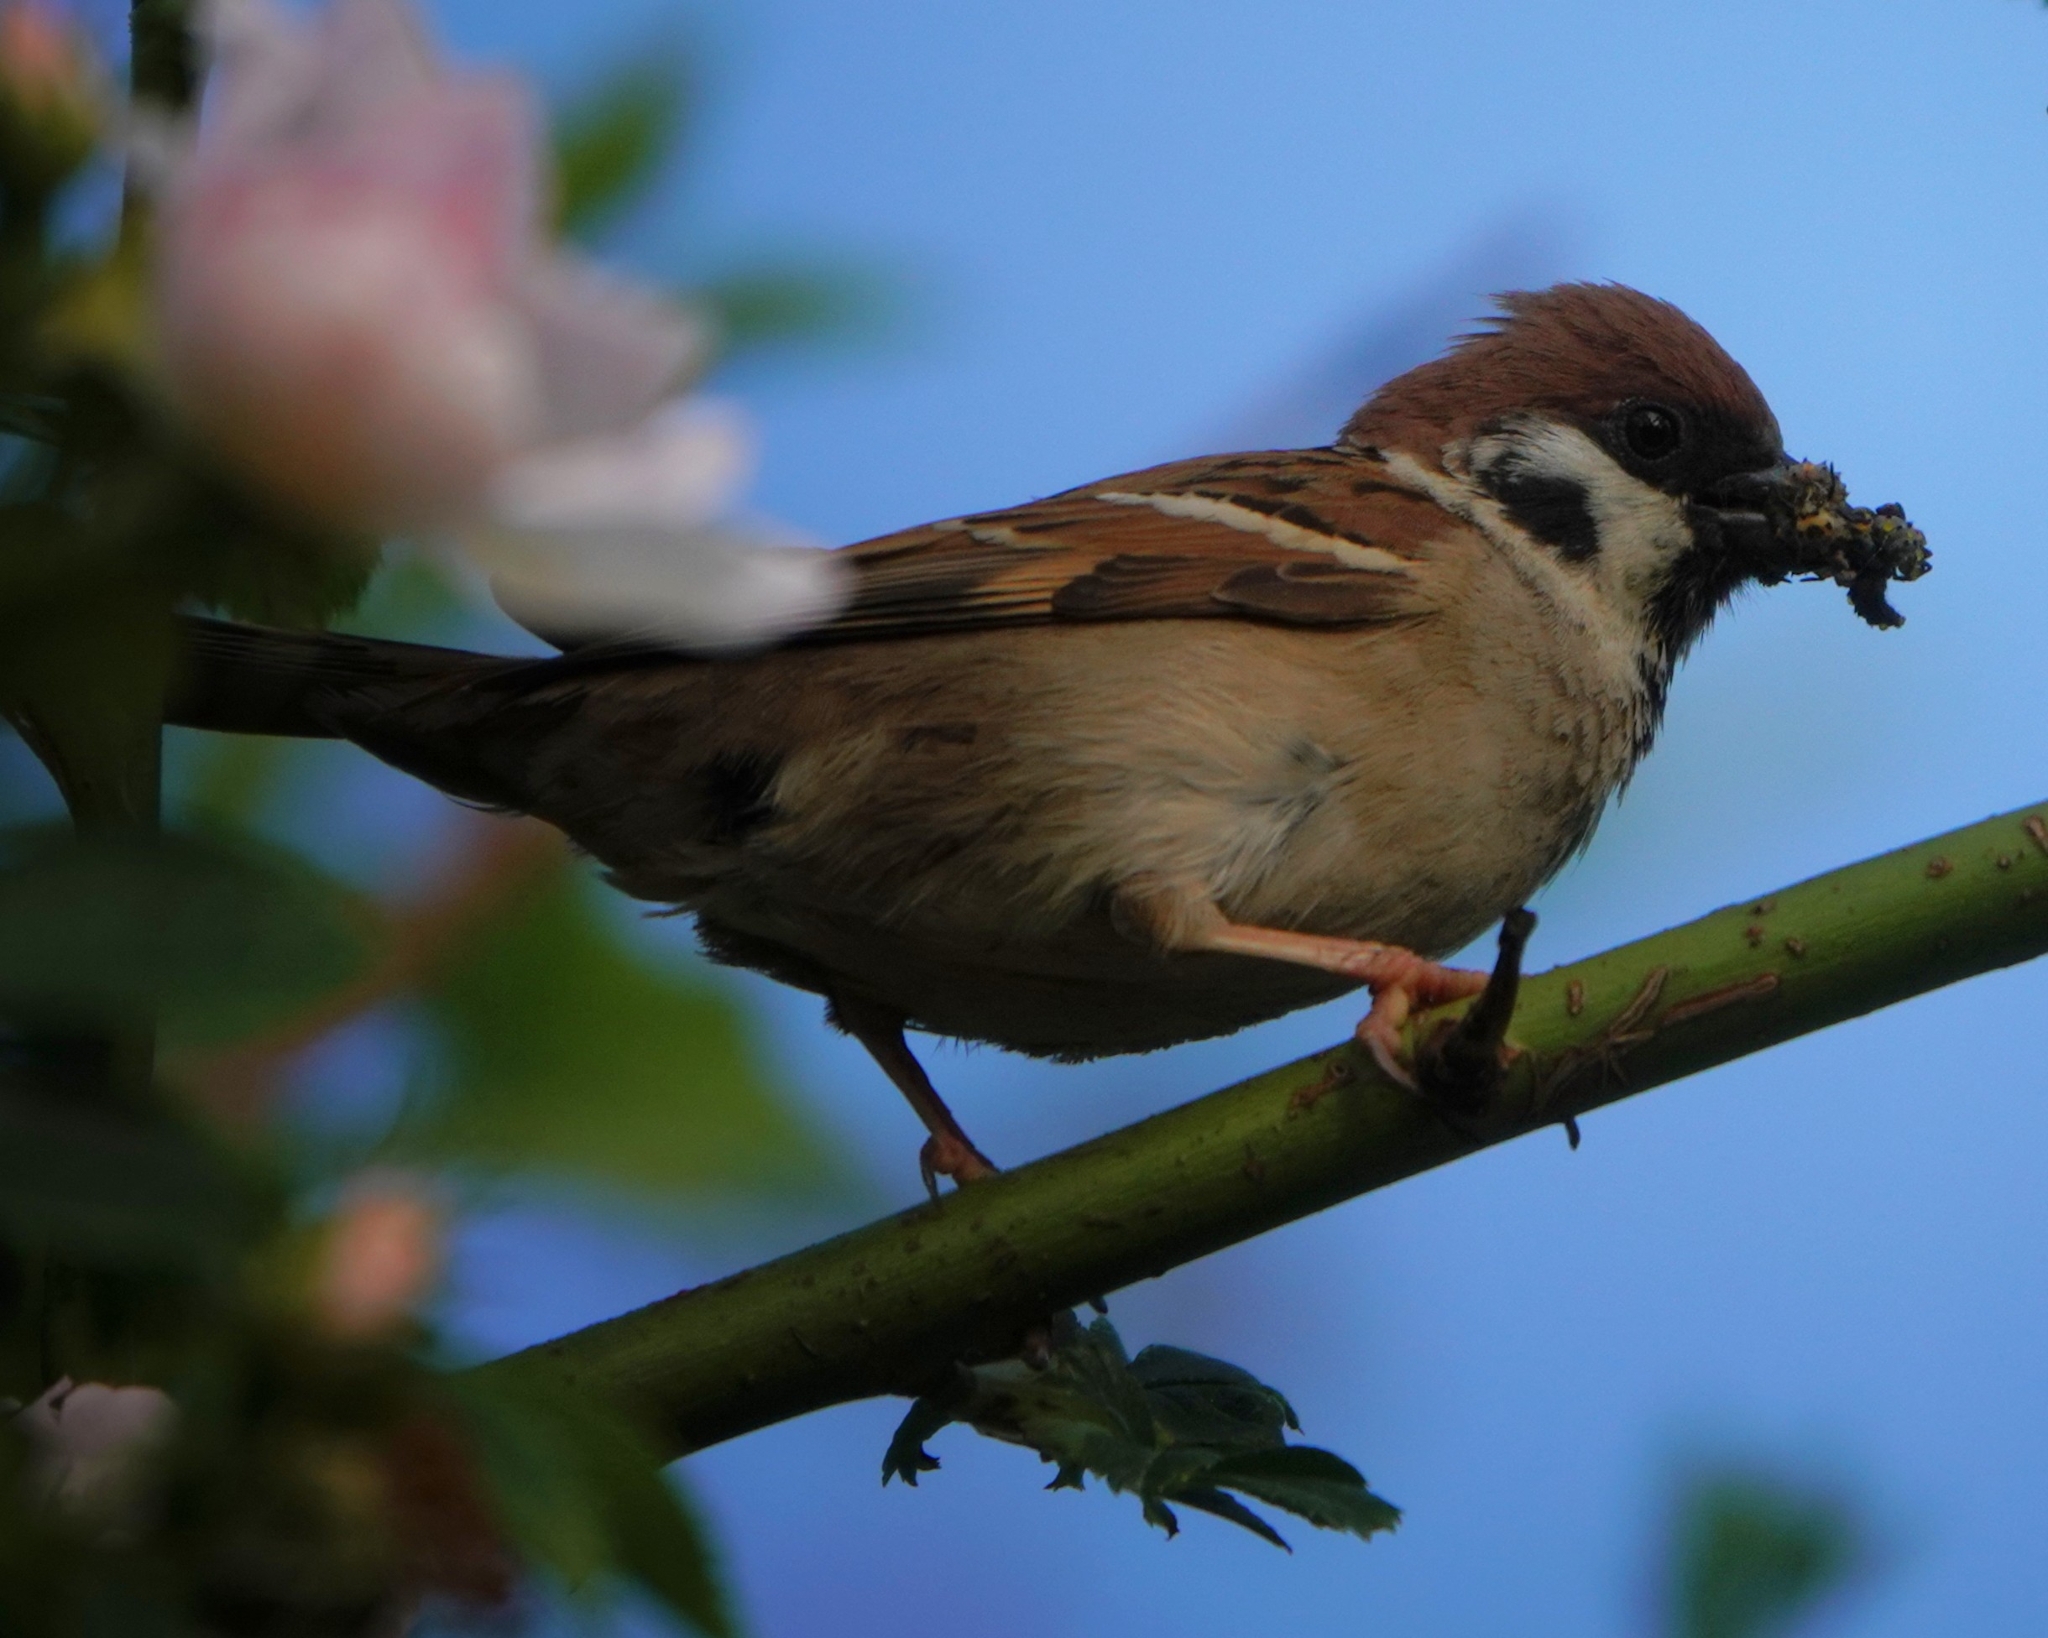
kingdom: Animalia
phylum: Chordata
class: Aves
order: Passeriformes
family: Passeridae
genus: Passer
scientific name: Passer montanus
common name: Eurasian tree sparrow
